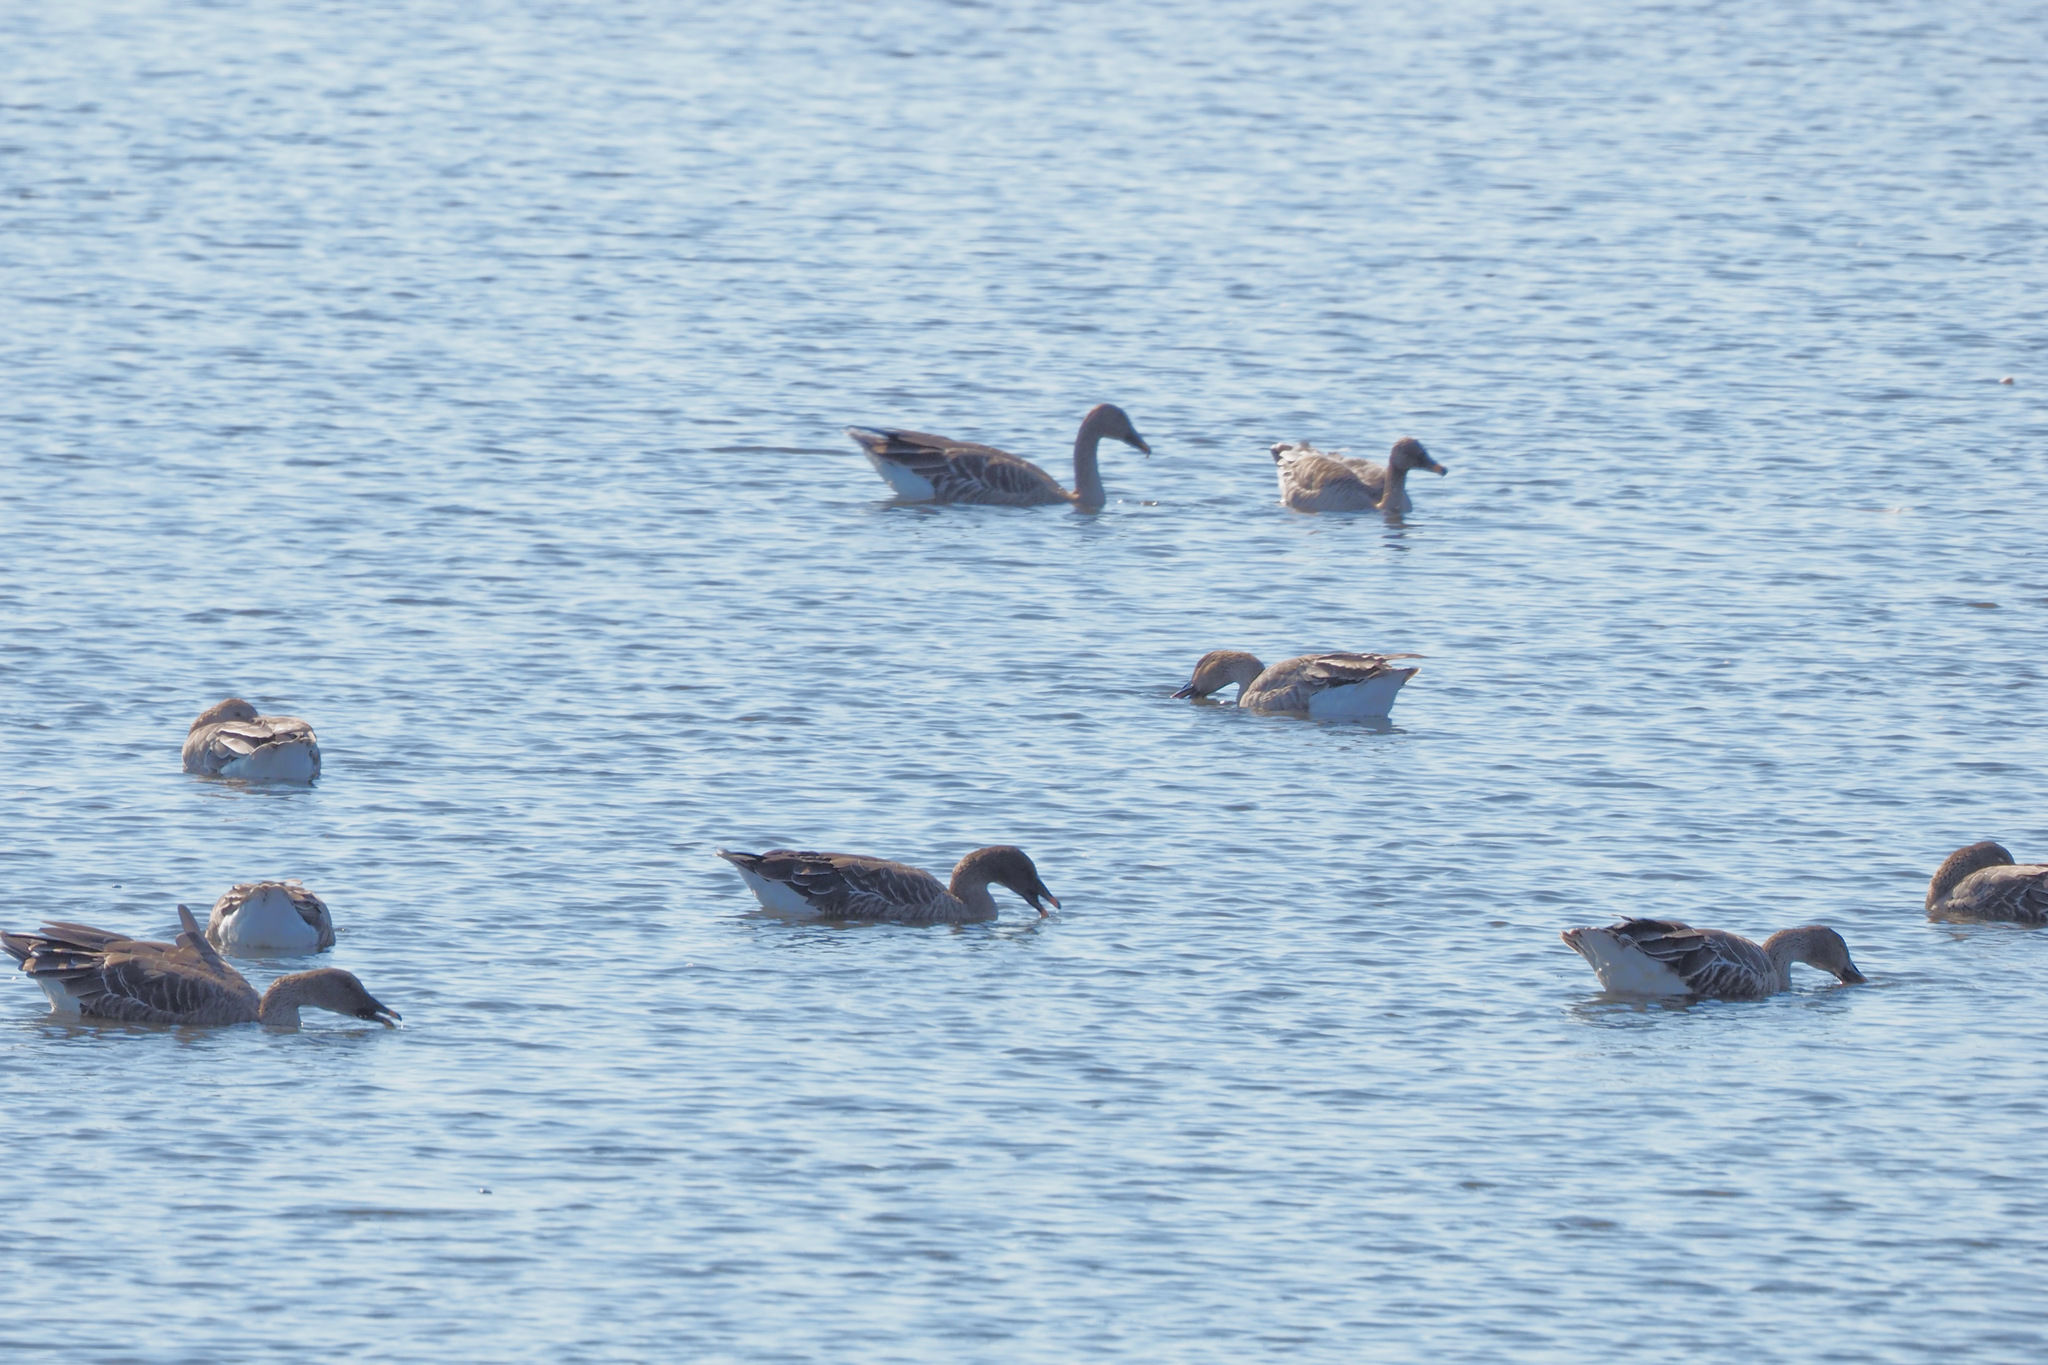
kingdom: Animalia
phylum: Chordata
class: Aves
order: Anseriformes
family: Anatidae
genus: Anser
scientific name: Anser fabalis
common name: Bean goose
